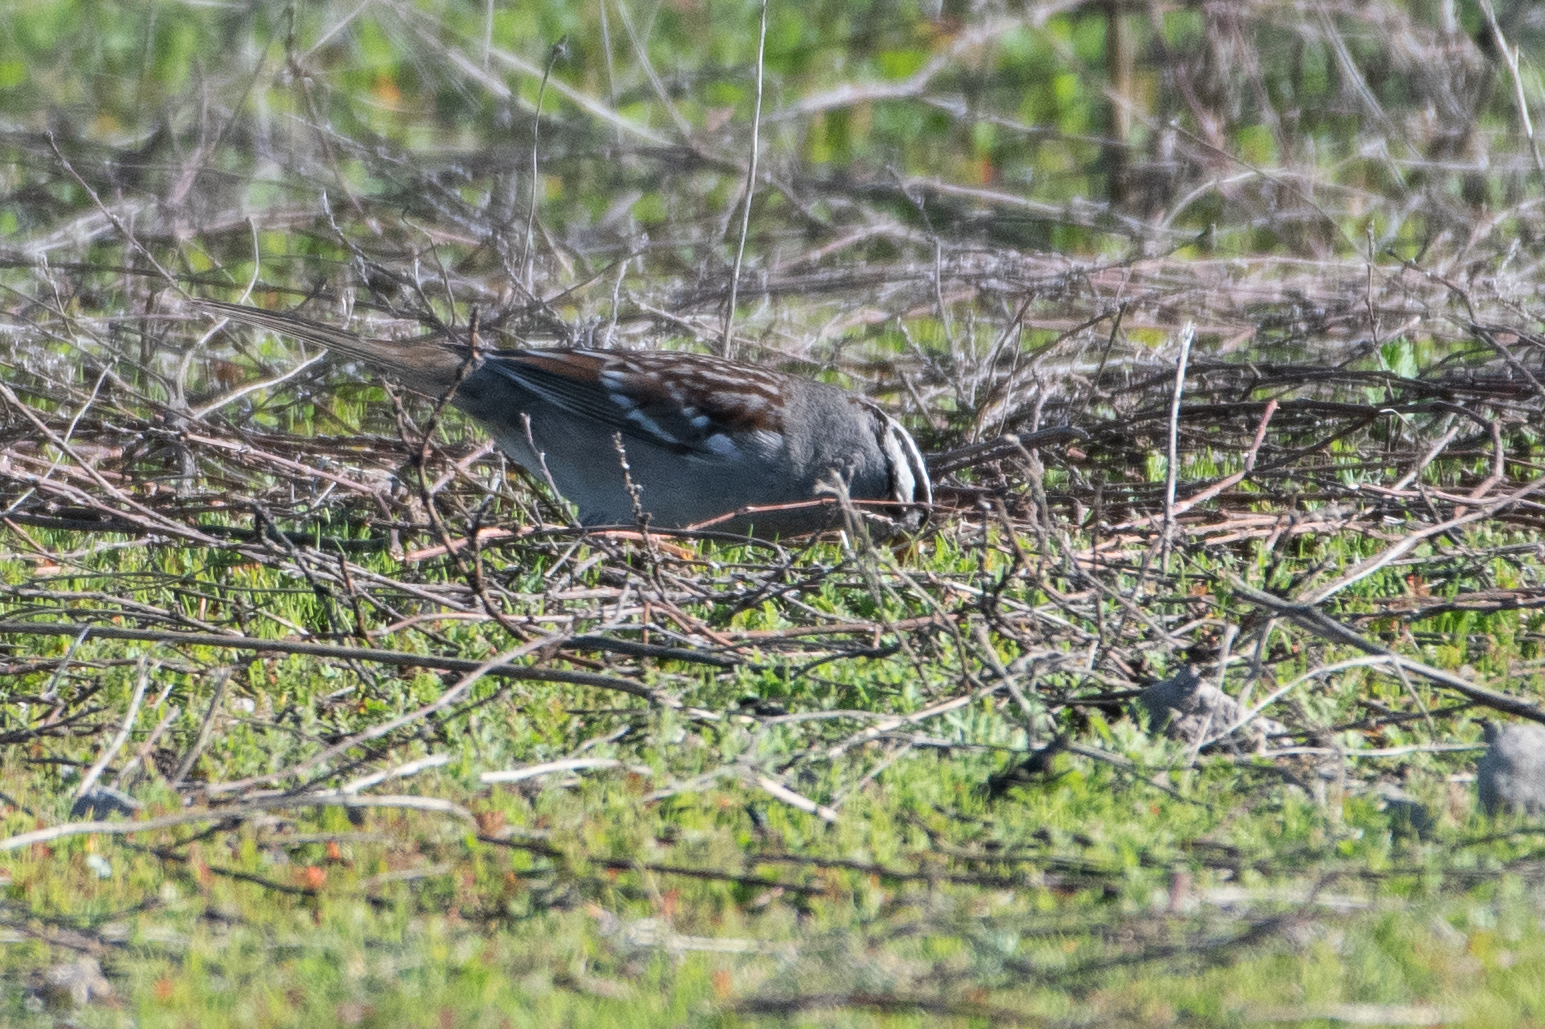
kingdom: Animalia
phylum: Chordata
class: Aves
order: Passeriformes
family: Passerellidae
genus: Zonotrichia
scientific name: Zonotrichia leucophrys
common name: White-crowned sparrow
